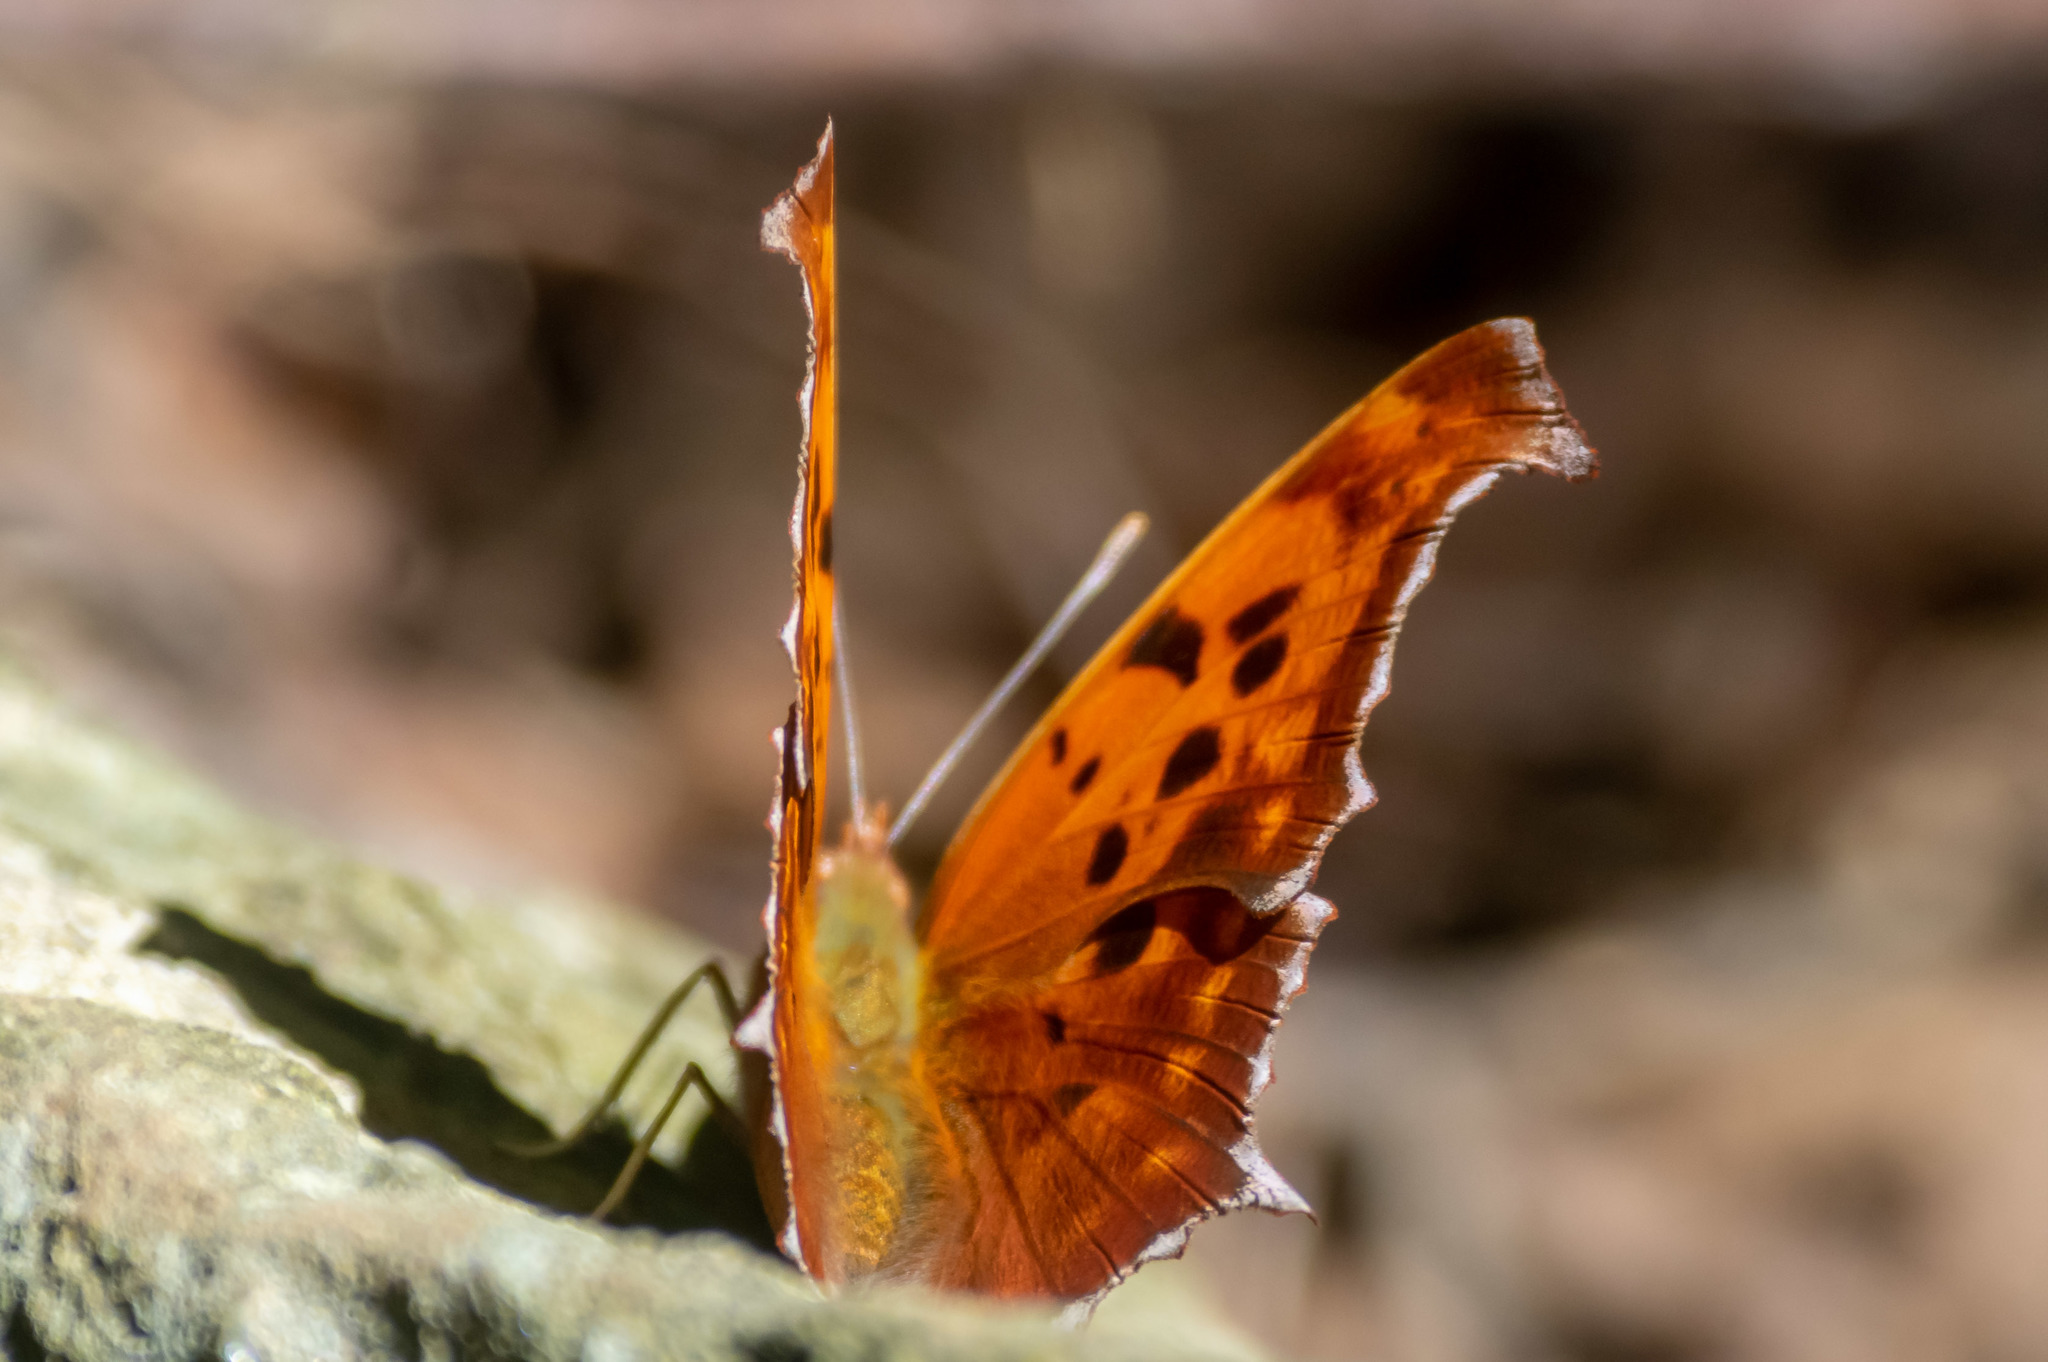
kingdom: Animalia
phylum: Arthropoda
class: Insecta
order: Lepidoptera
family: Nymphalidae
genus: Polygonia
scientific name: Polygonia interrogationis
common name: Question mark
